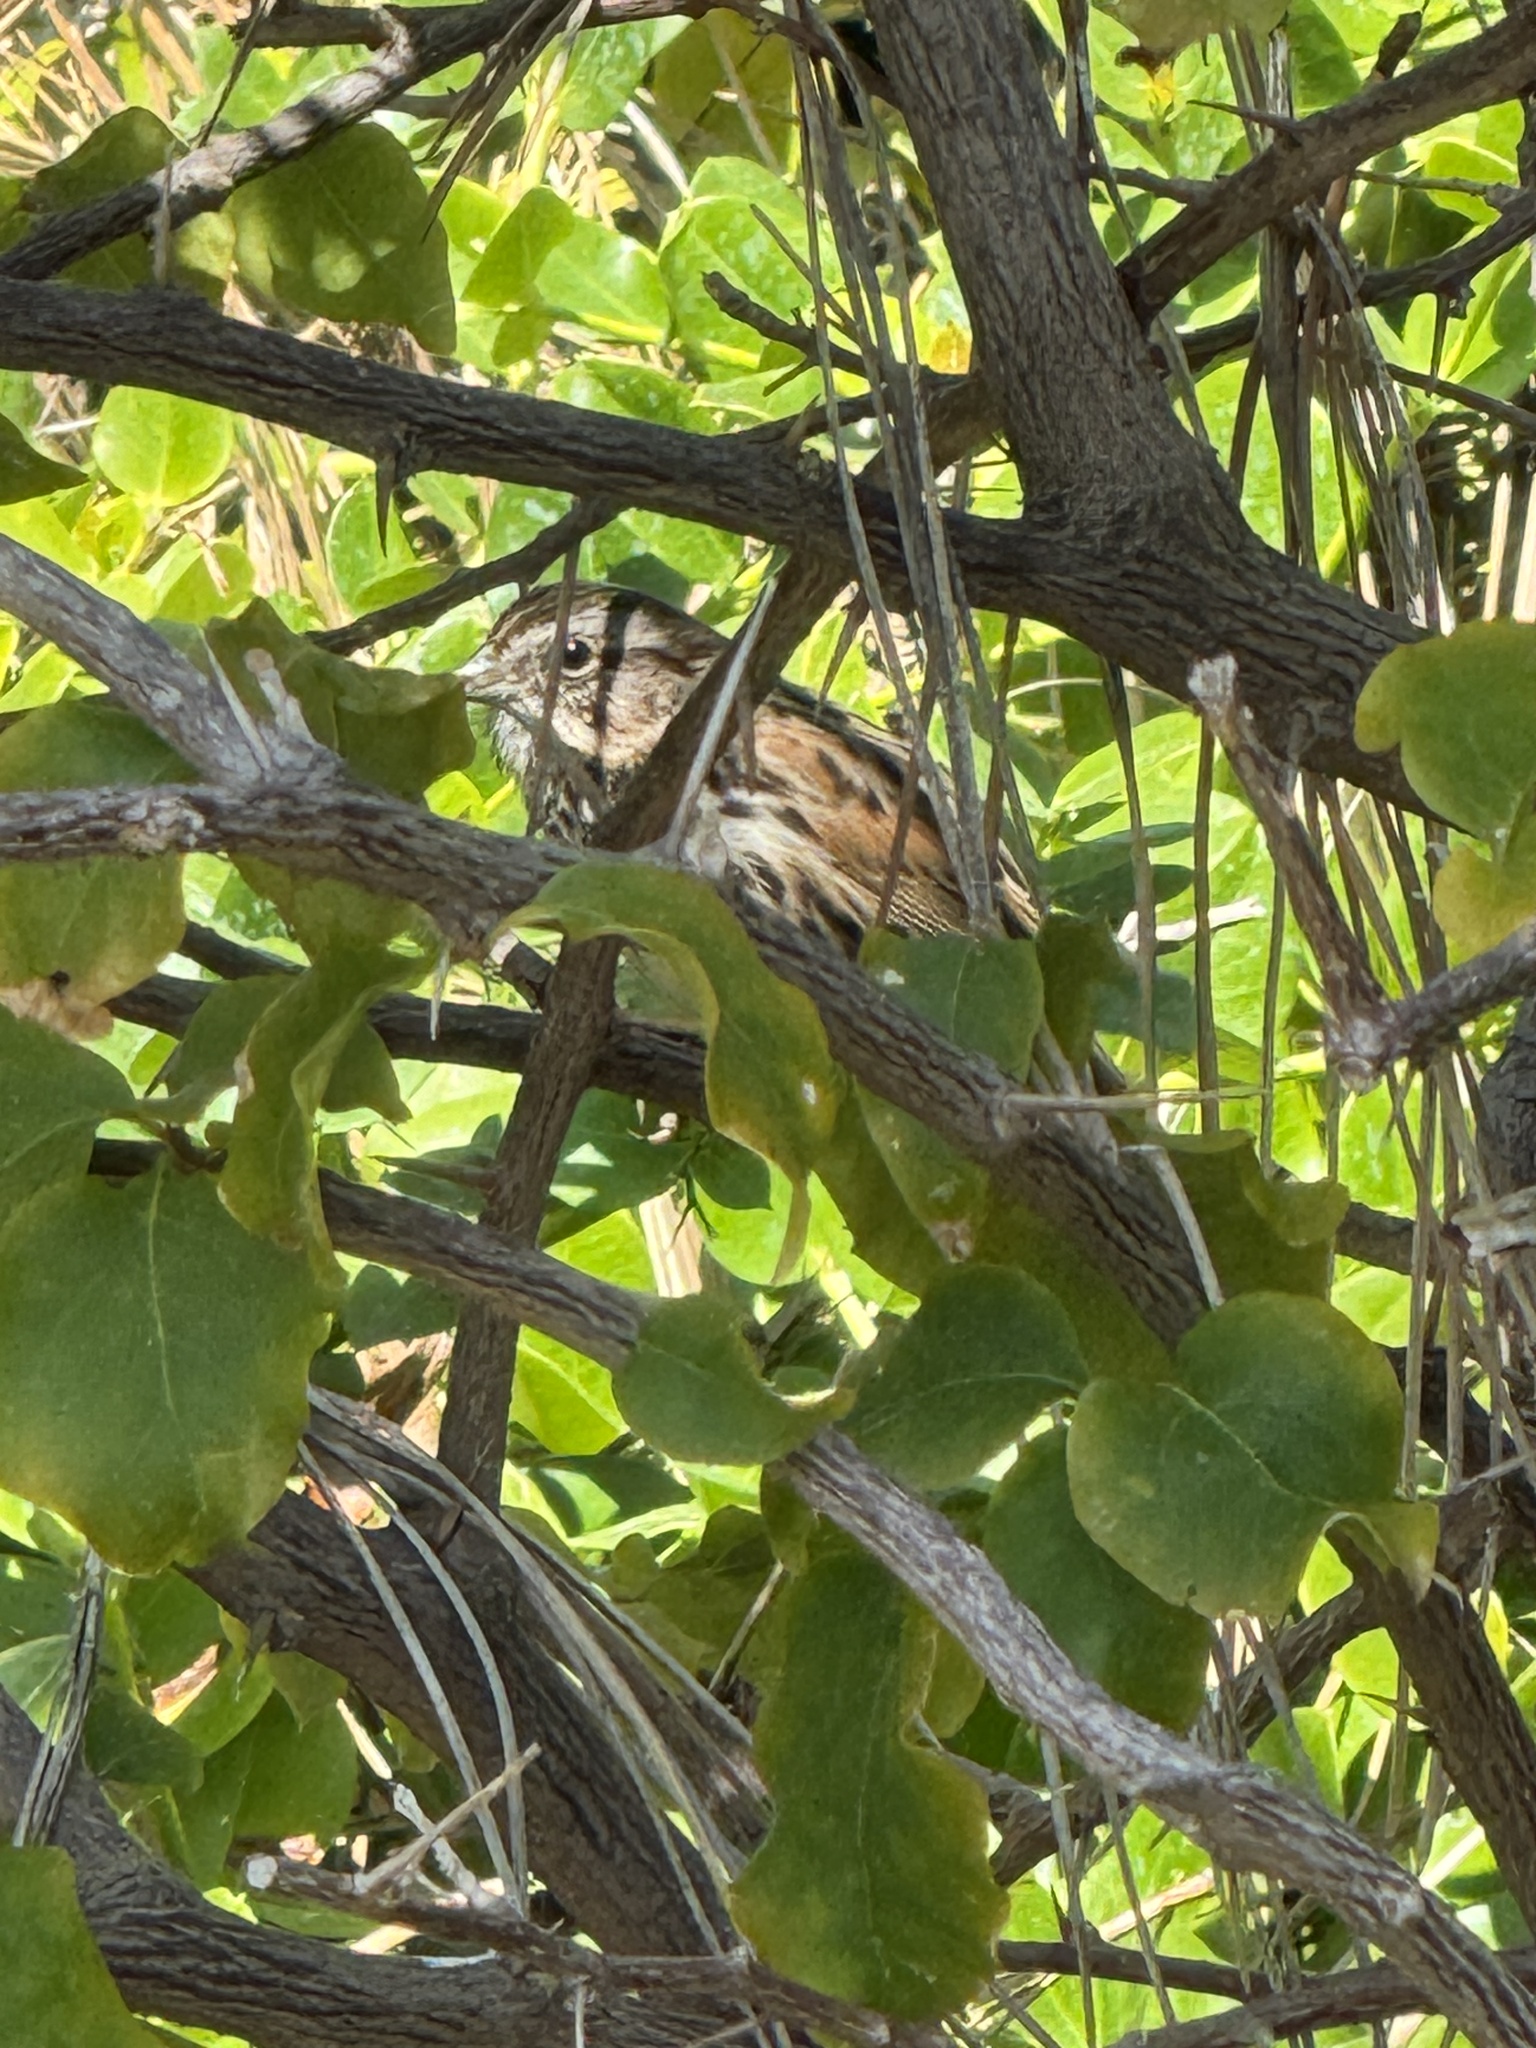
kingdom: Animalia
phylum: Chordata
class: Aves
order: Passeriformes
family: Passerellidae
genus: Melospiza
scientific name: Melospiza melodia
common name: Song sparrow
